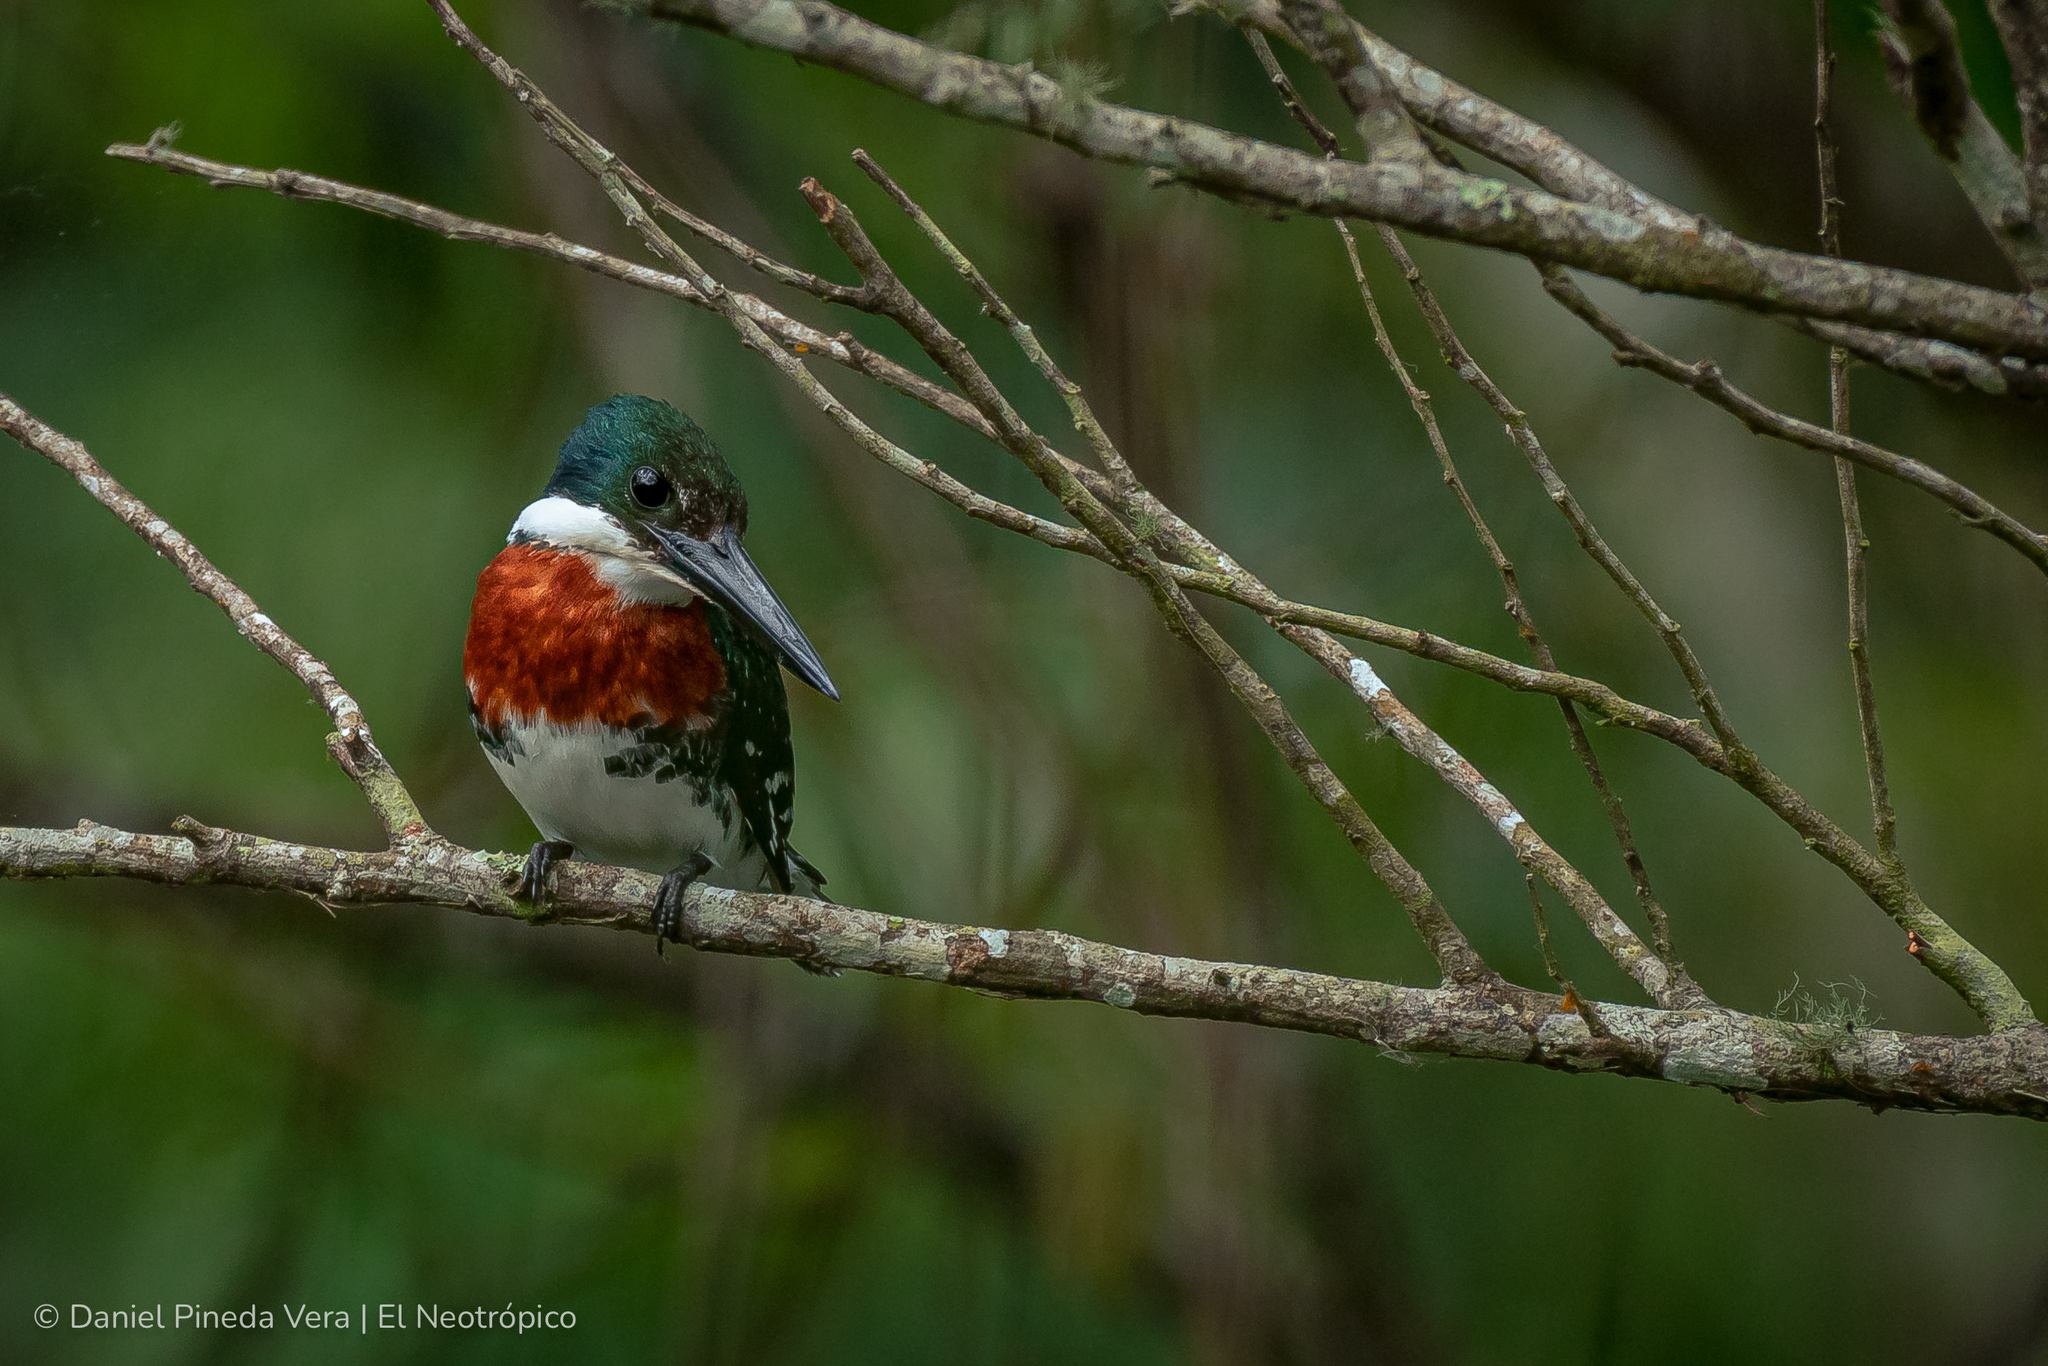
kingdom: Animalia
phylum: Chordata
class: Aves
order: Coraciiformes
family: Alcedinidae
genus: Chloroceryle
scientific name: Chloroceryle americana
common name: Green kingfisher
